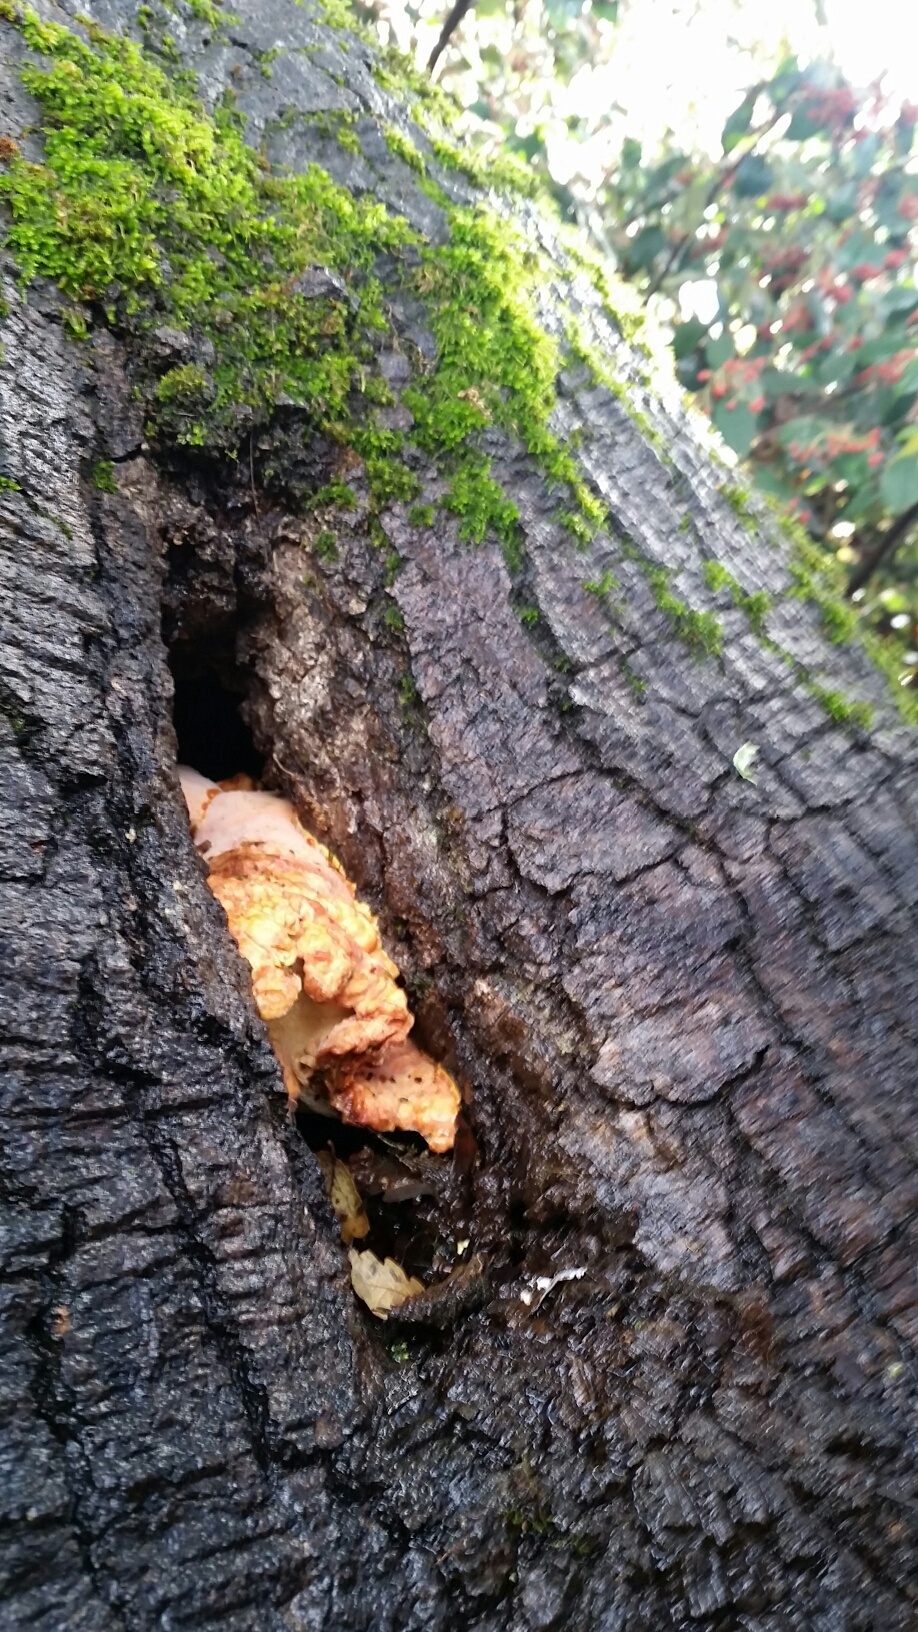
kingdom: Fungi
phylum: Basidiomycota
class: Agaricomycetes
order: Polyporales
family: Laetiporaceae
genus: Laetiporus
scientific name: Laetiporus gilbertsonii
